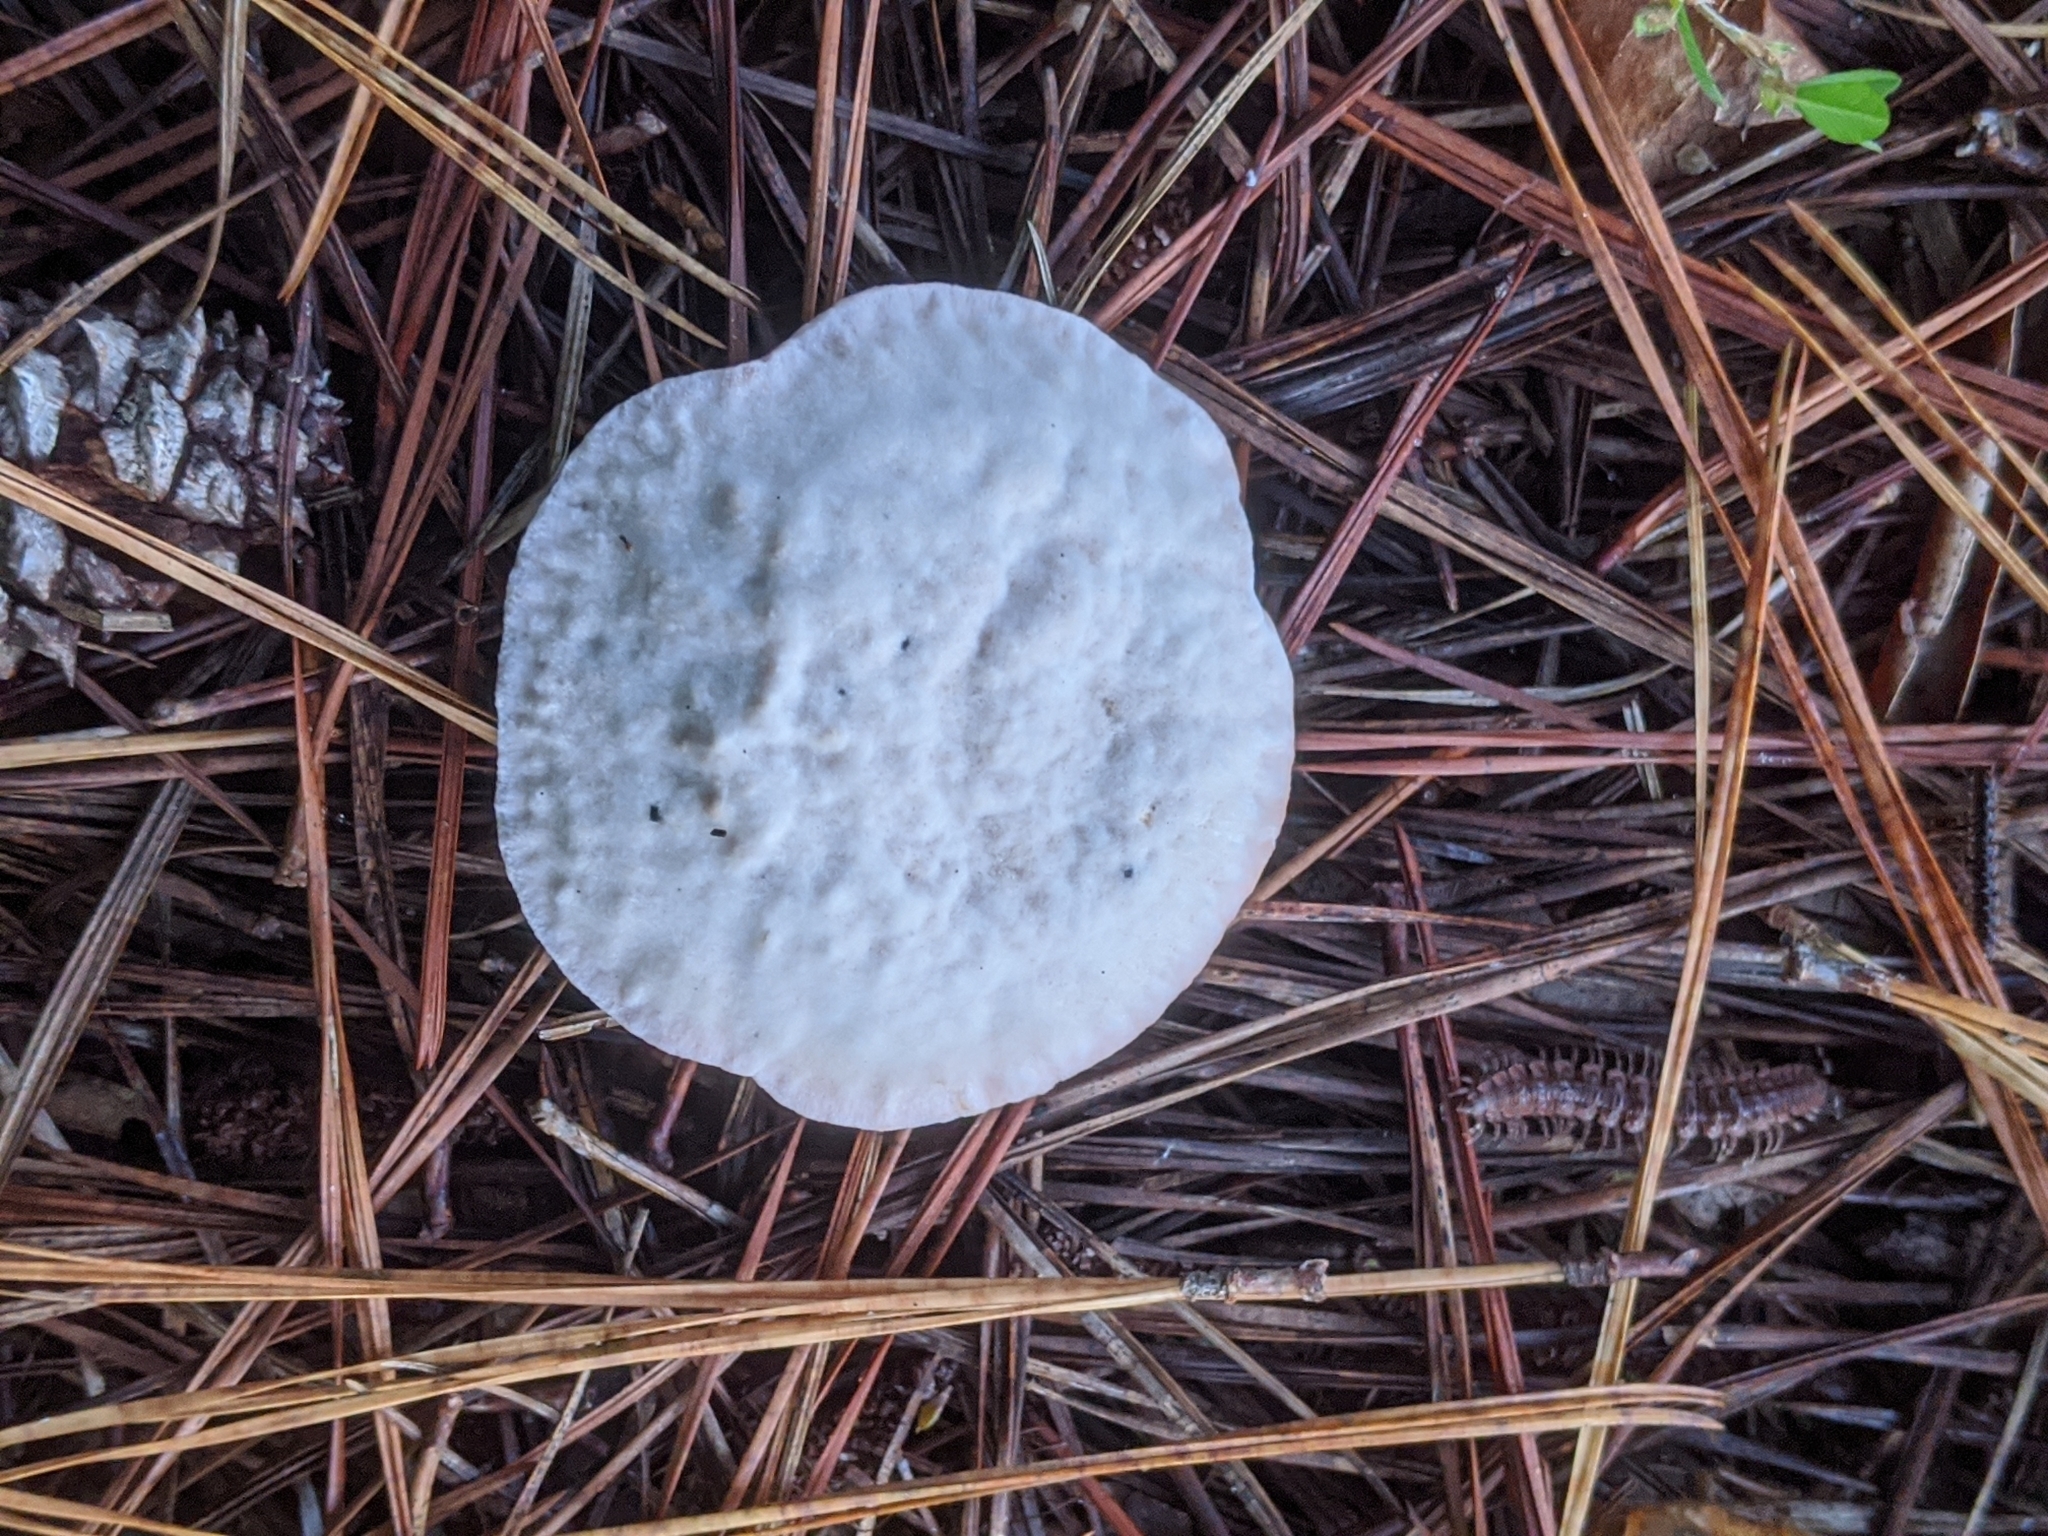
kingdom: Fungi
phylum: Basidiomycota
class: Agaricomycetes
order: Thelephorales
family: Bankeraceae
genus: Hydnellum
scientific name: Hydnellum peckii
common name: Devil's tooth
